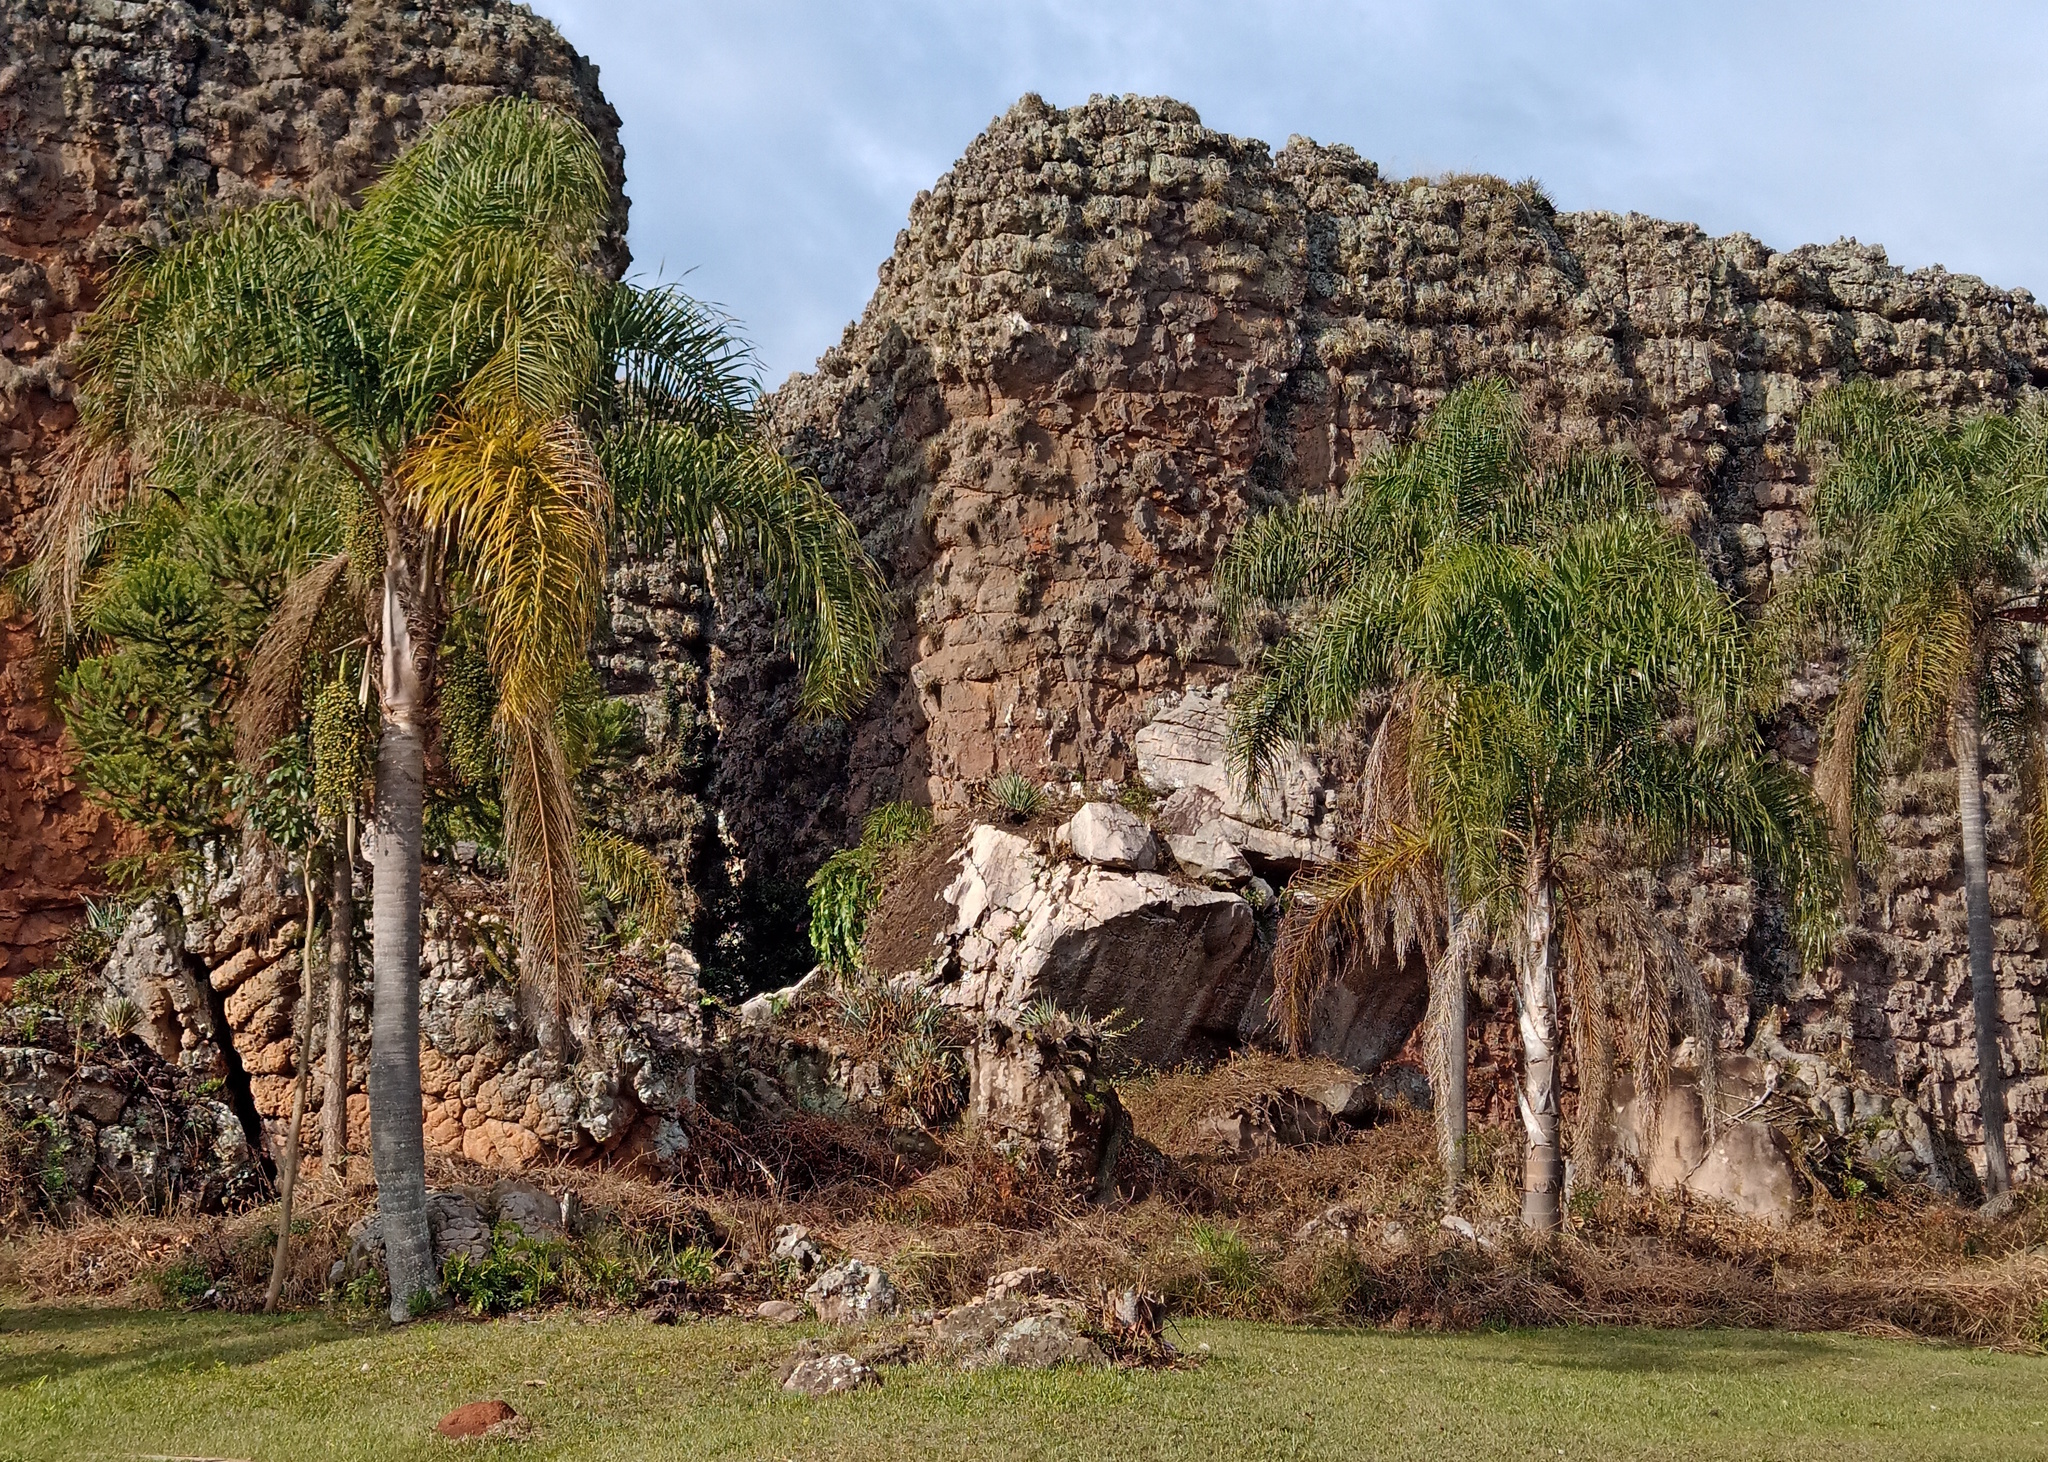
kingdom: Plantae
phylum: Tracheophyta
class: Liliopsida
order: Arecales
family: Arecaceae
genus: Syagrus
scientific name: Syagrus romanzoffiana
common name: Queen palm
